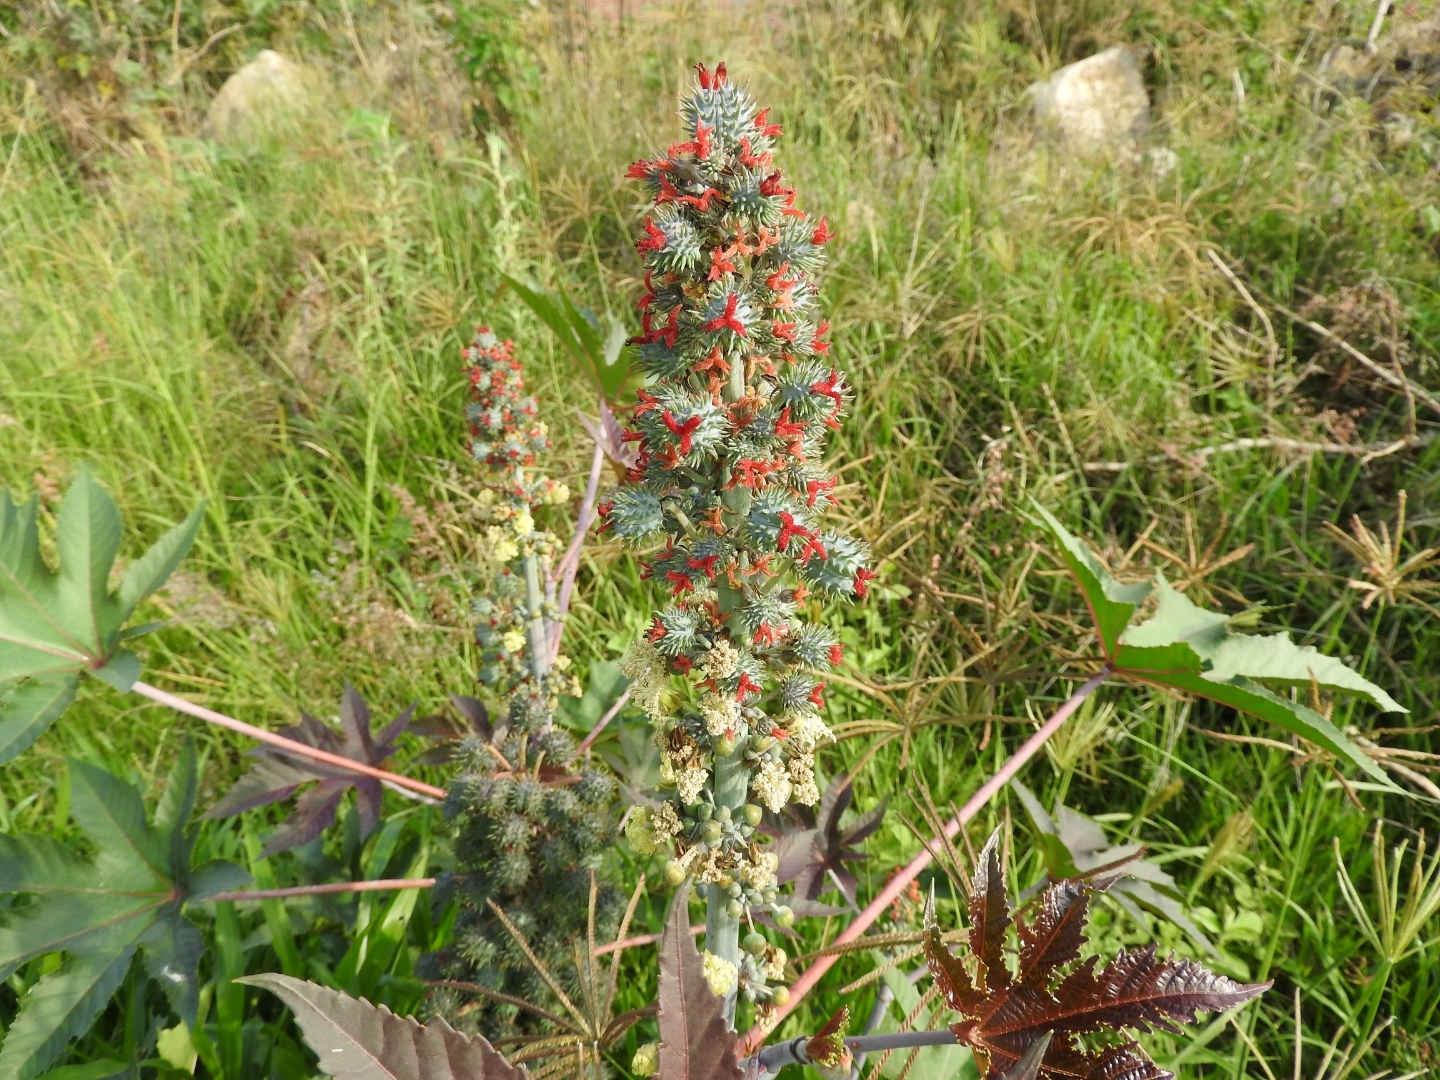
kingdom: Plantae
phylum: Tracheophyta
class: Magnoliopsida
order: Malpighiales
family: Euphorbiaceae
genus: Ricinus
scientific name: Ricinus communis
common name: Castor-oil-plant
